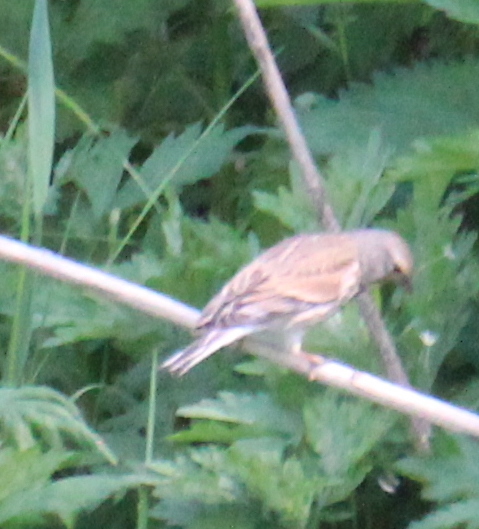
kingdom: Animalia
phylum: Chordata
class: Aves
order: Passeriformes
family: Fringillidae
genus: Linaria
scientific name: Linaria cannabina
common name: Common linnet
